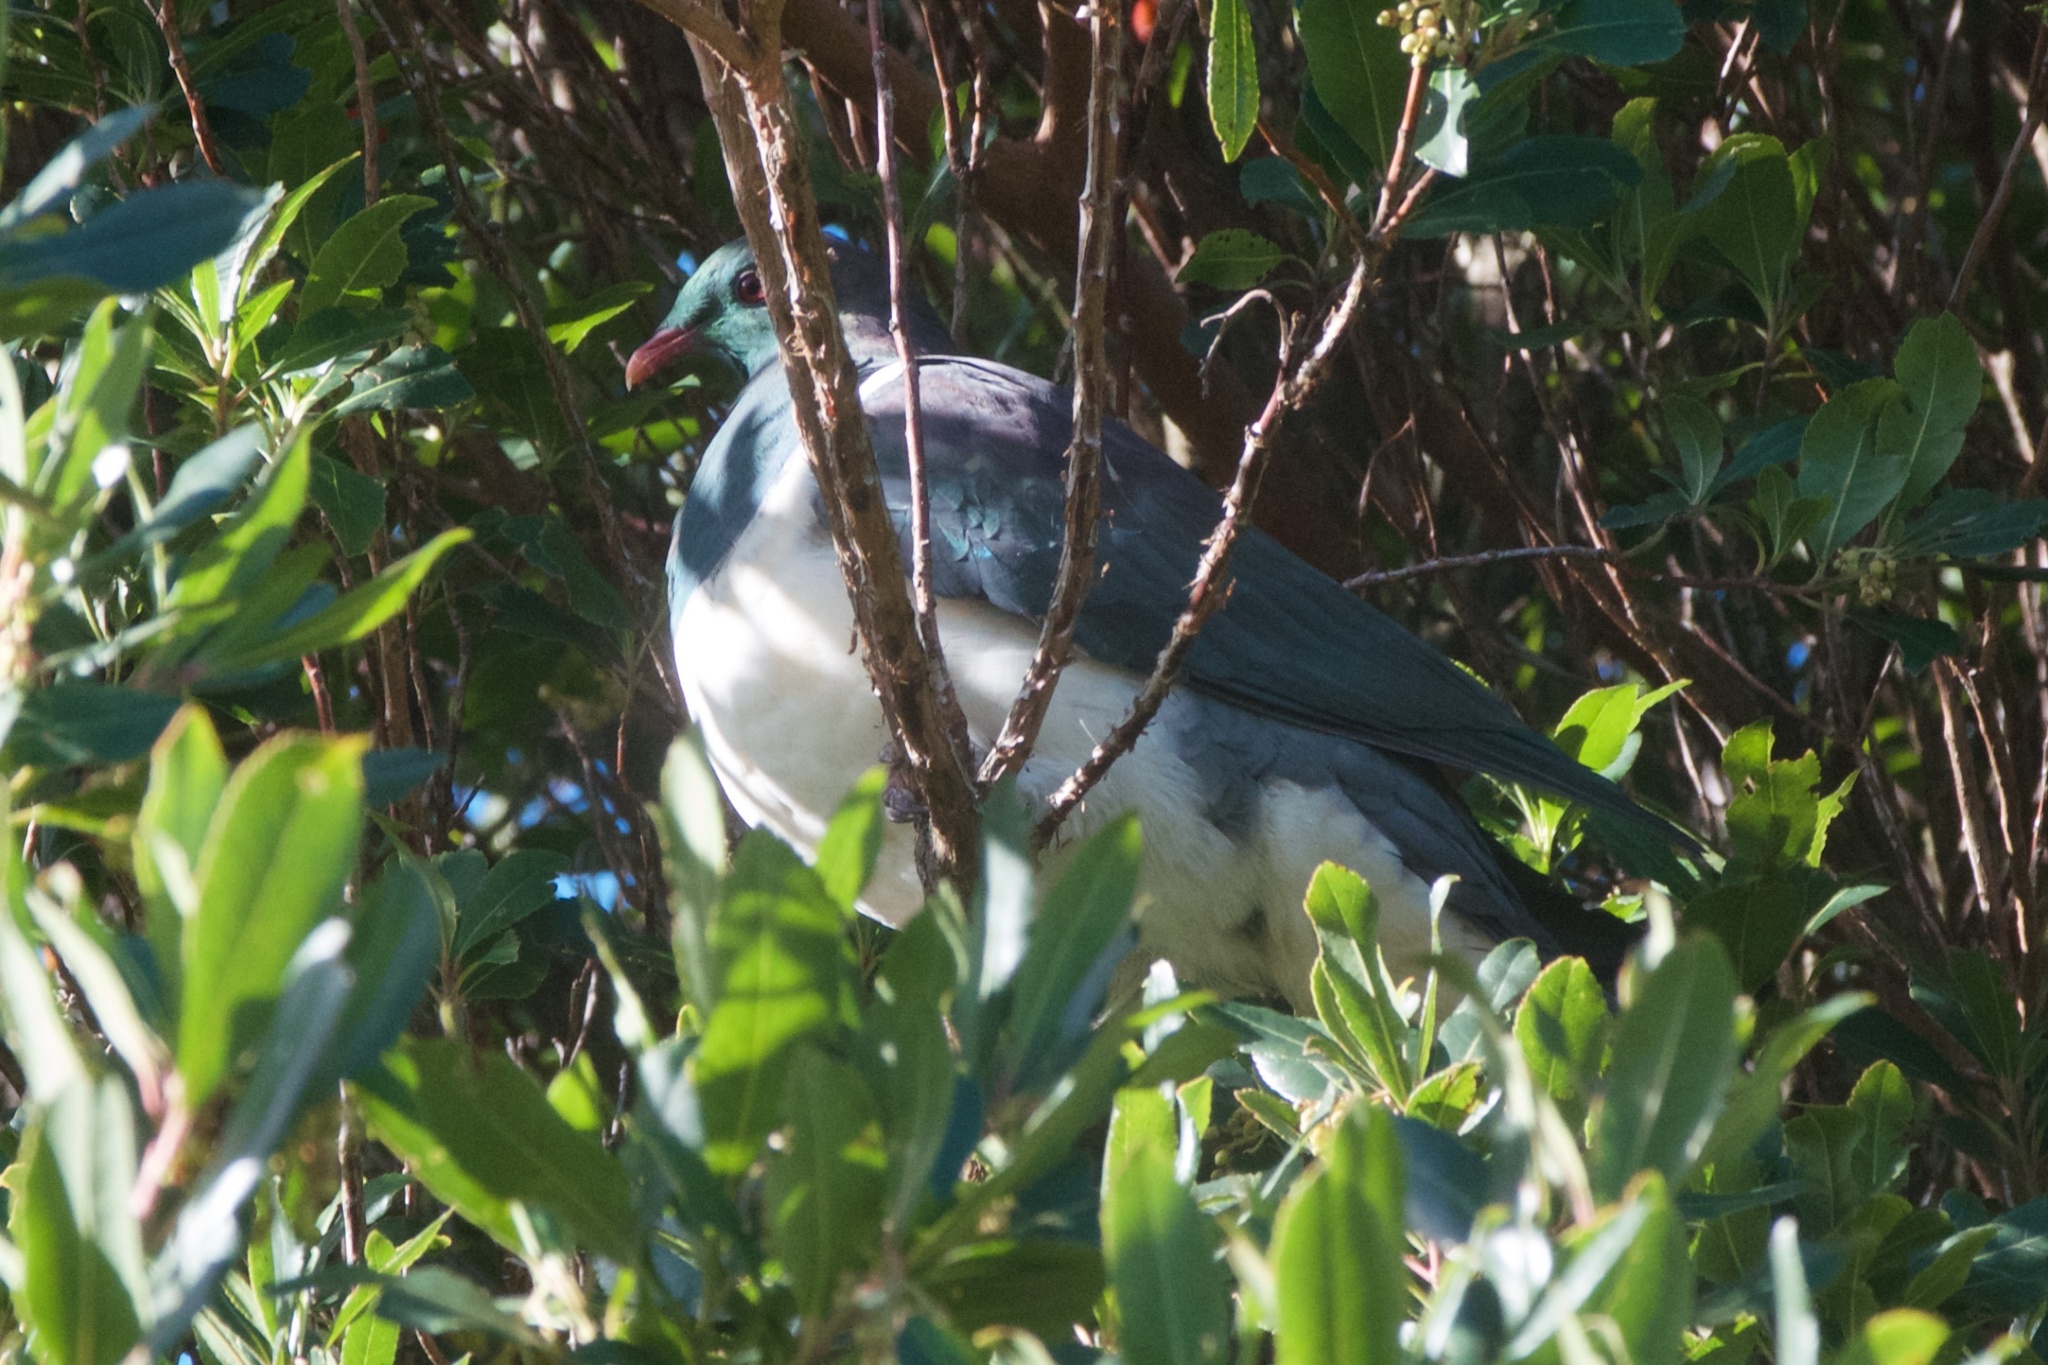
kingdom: Animalia
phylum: Chordata
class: Aves
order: Columbiformes
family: Columbidae
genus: Hemiphaga
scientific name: Hemiphaga novaeseelandiae
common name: New zealand pigeon
